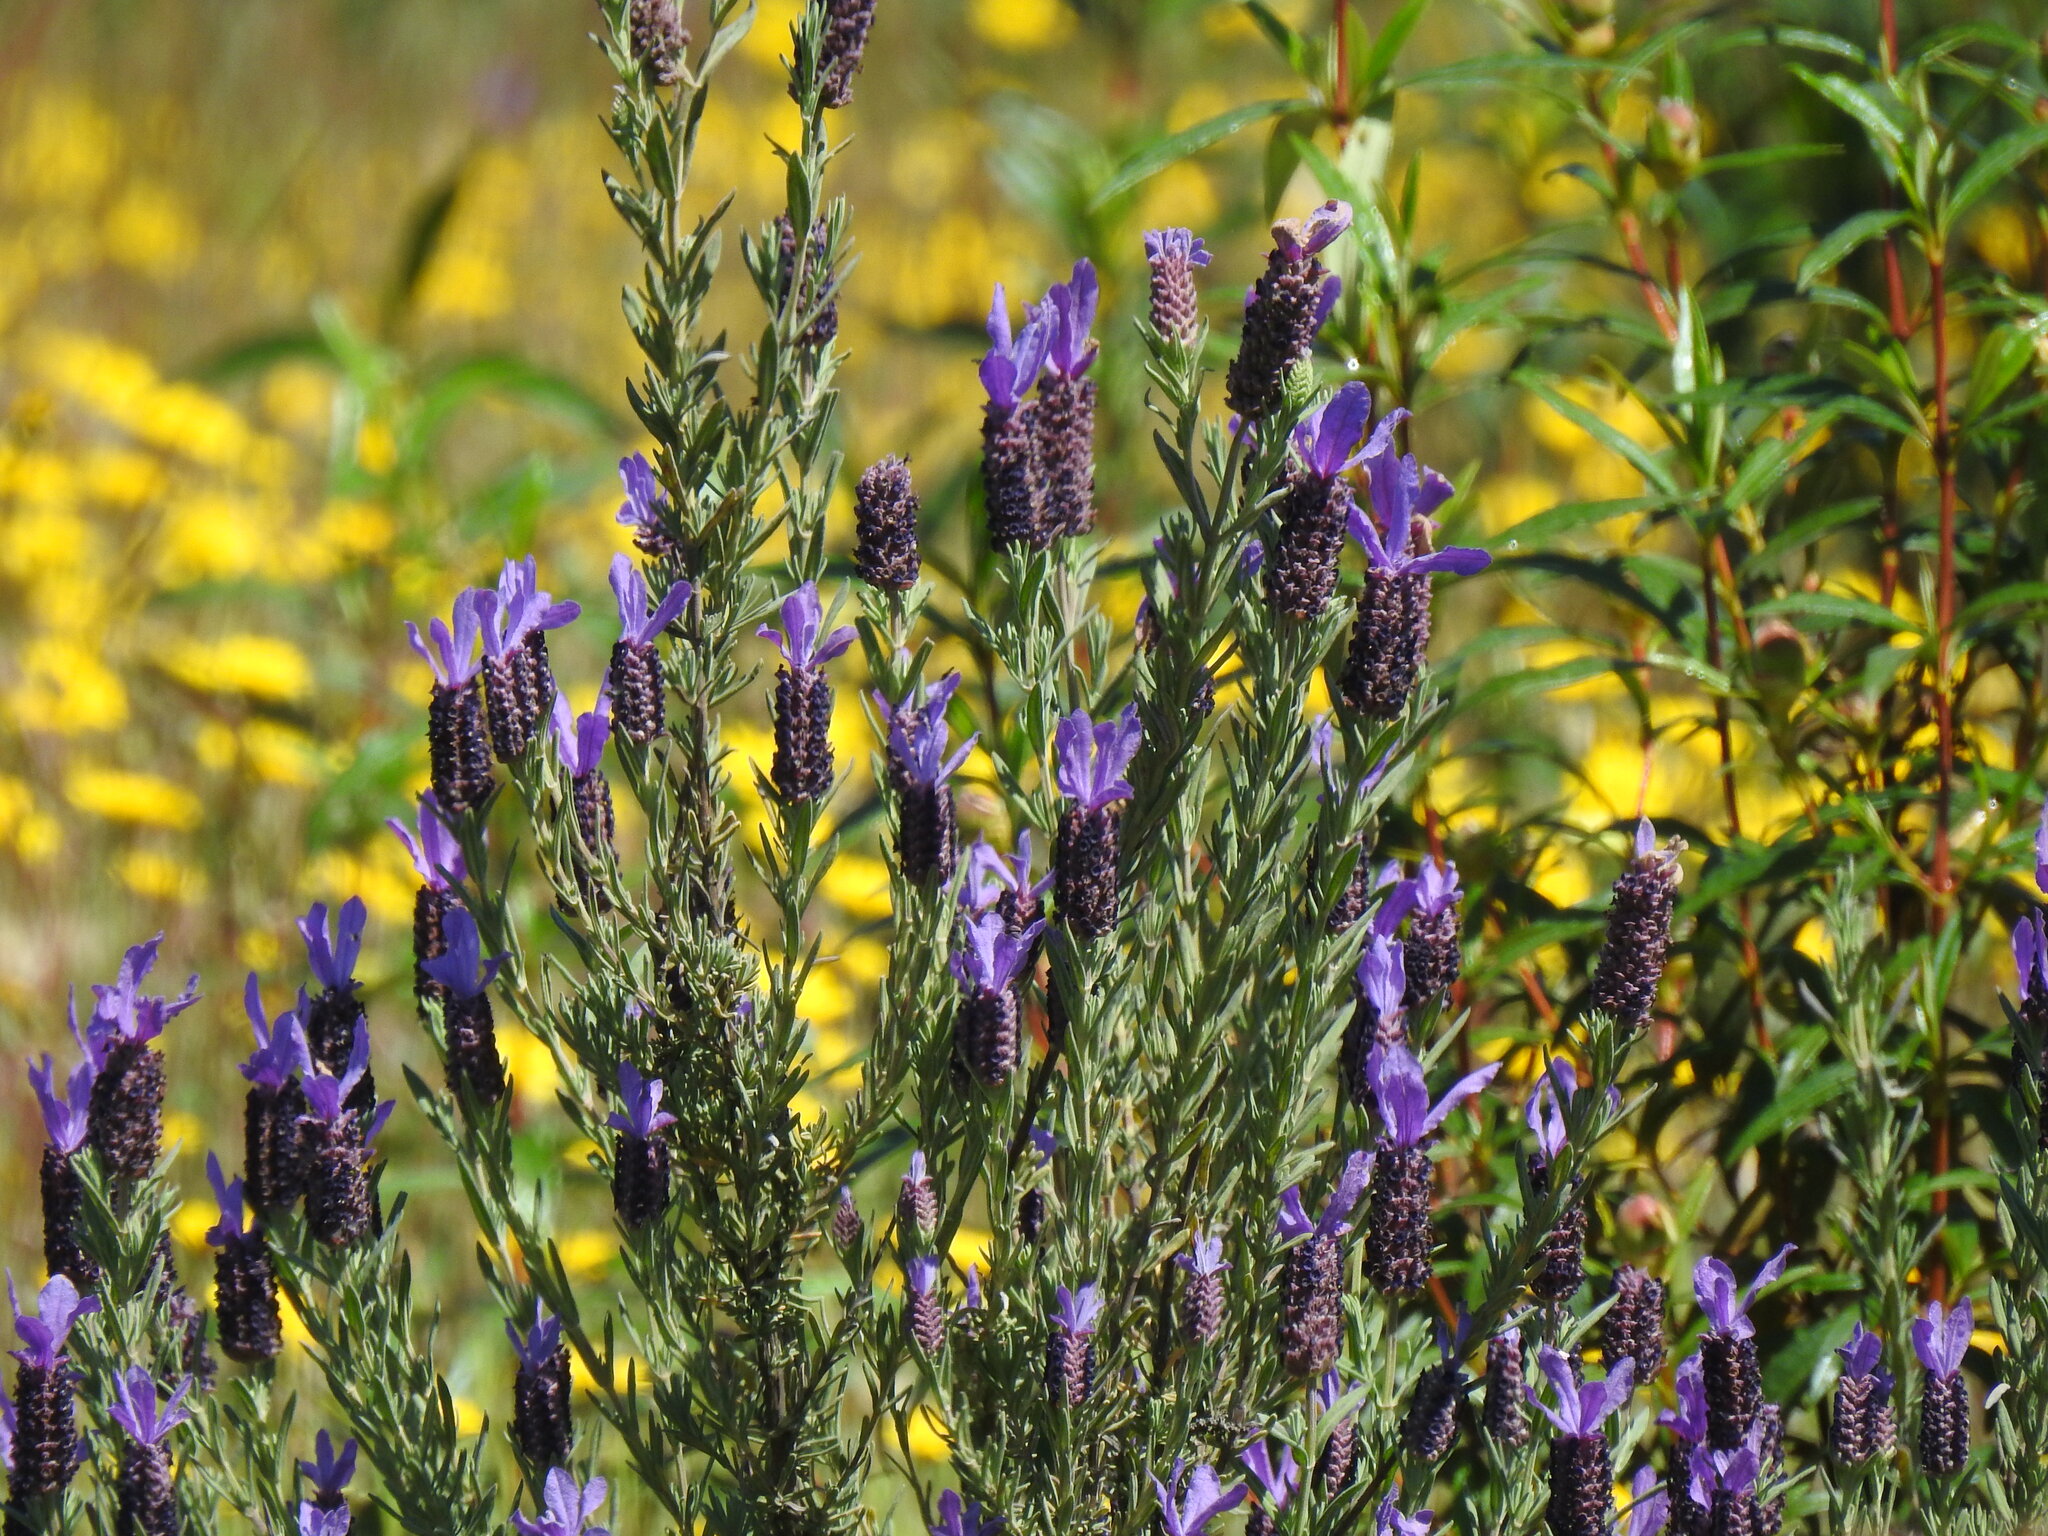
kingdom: Plantae
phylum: Tracheophyta
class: Magnoliopsida
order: Lamiales
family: Lamiaceae
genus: Lavandula
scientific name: Lavandula stoechas
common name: French lavender
